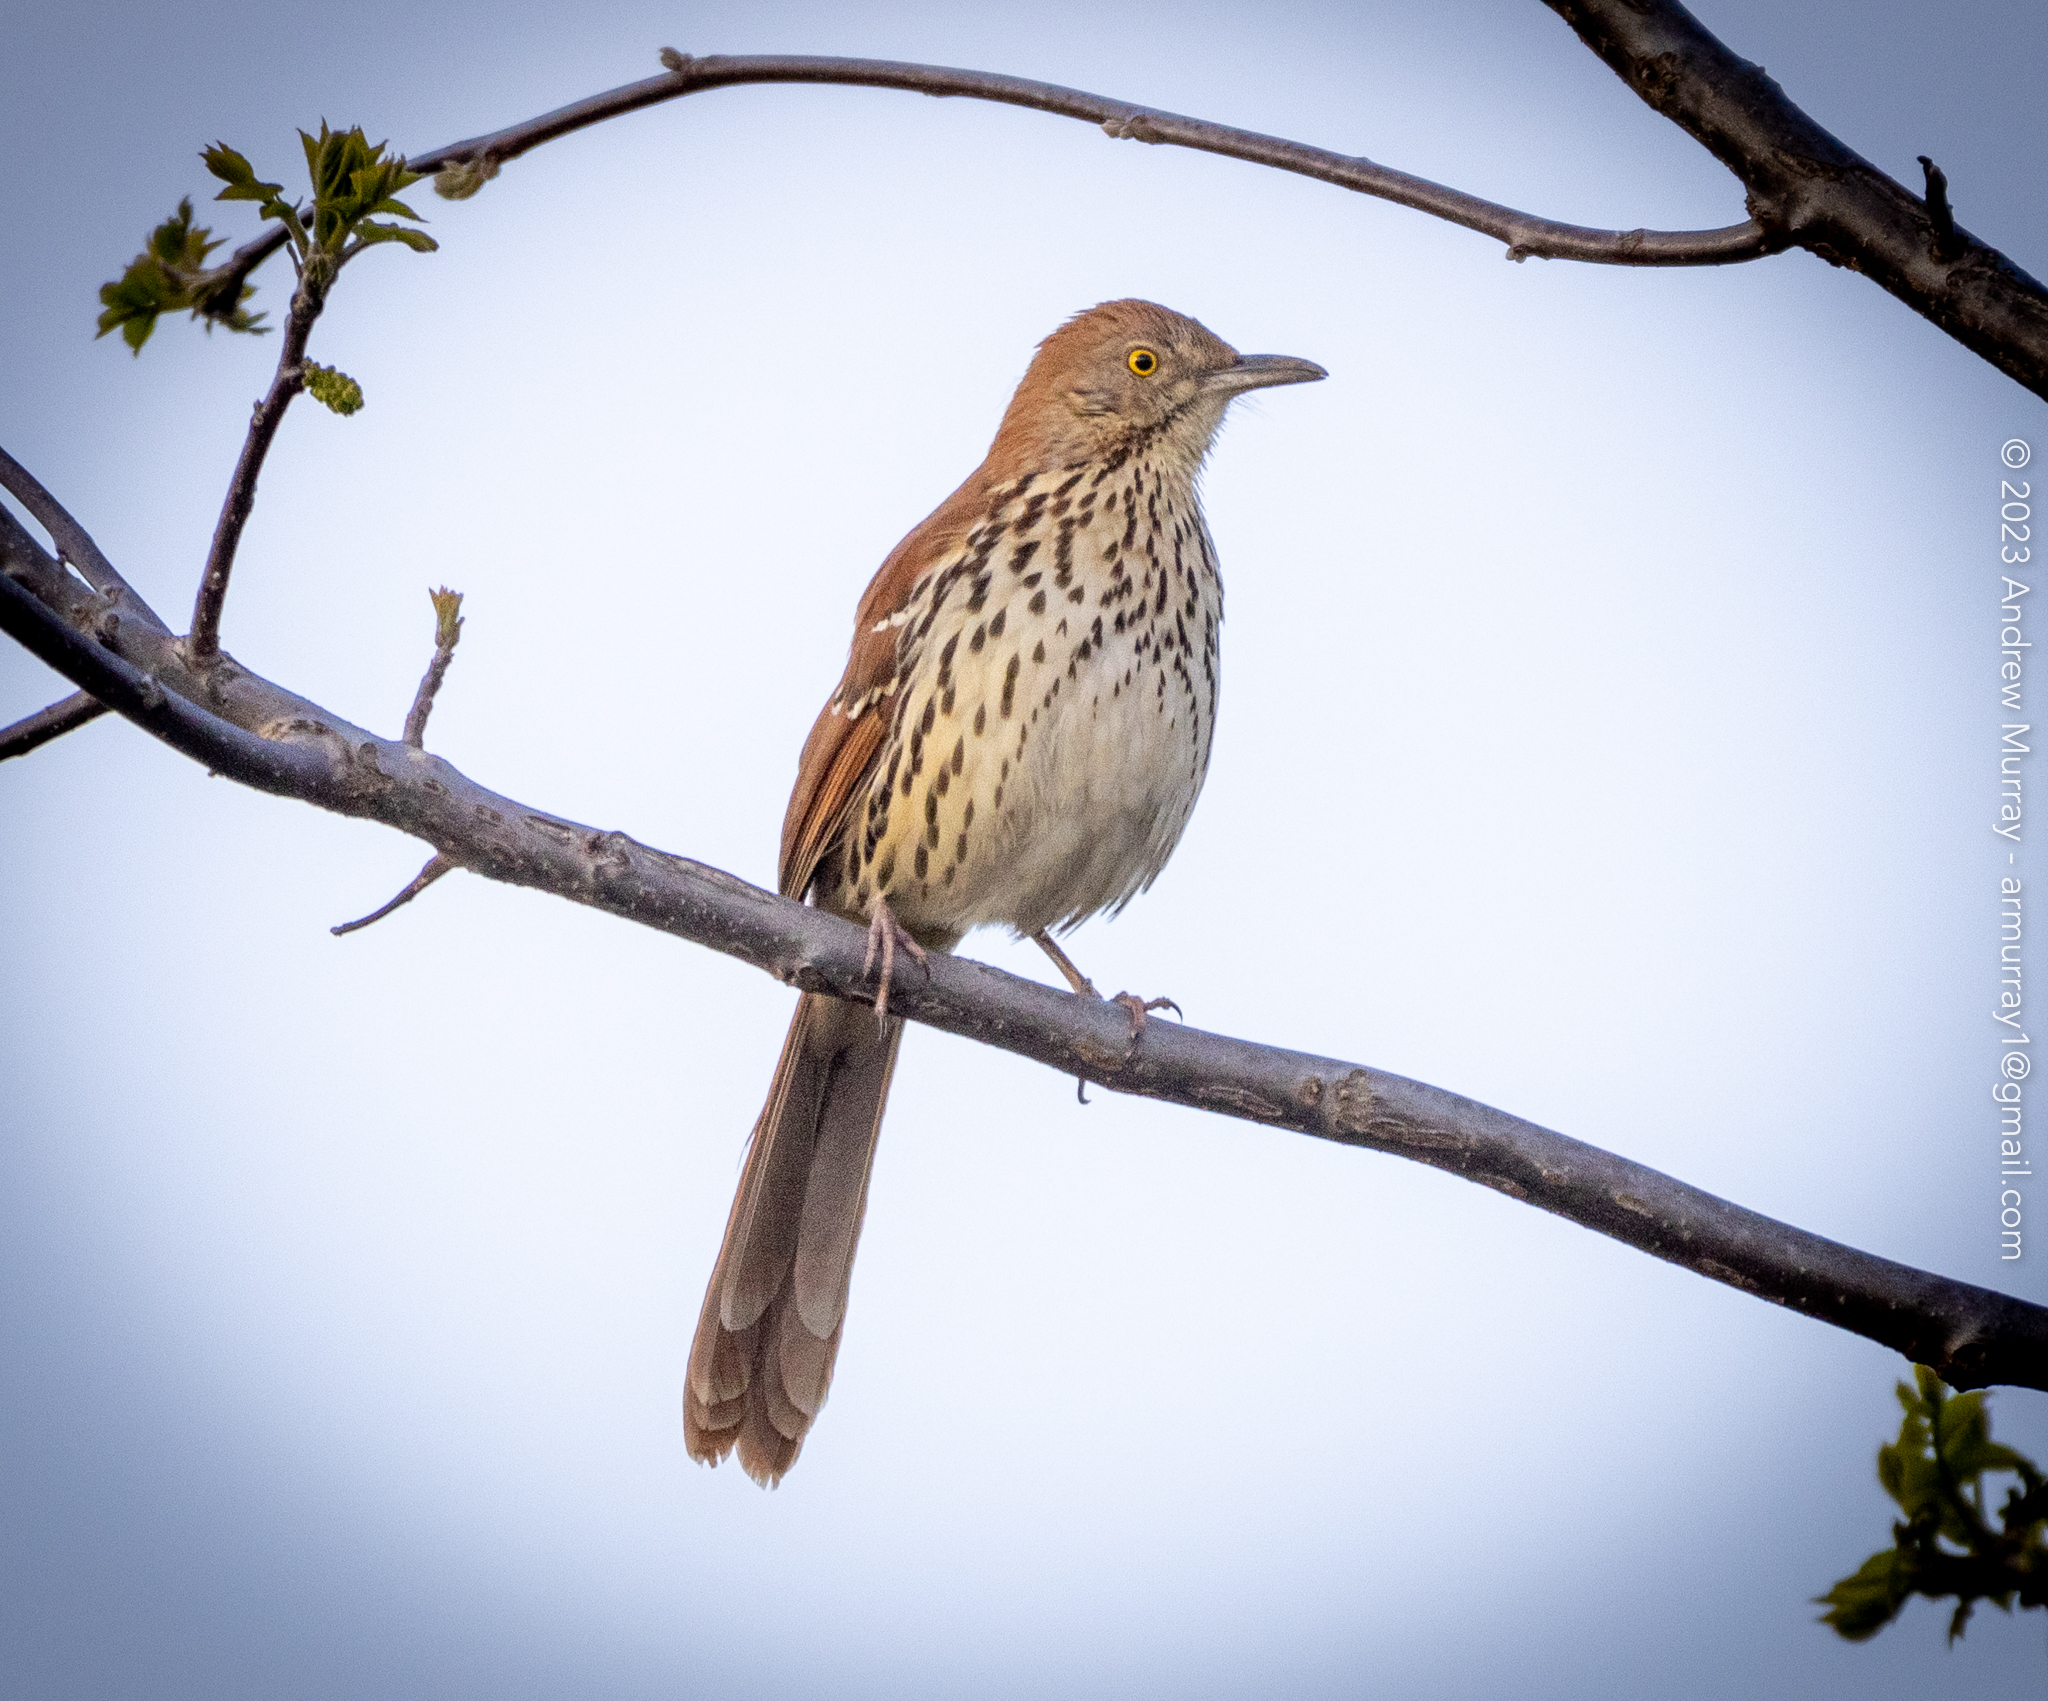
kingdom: Animalia
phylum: Chordata
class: Aves
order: Passeriformes
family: Mimidae
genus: Toxostoma
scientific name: Toxostoma rufum
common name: Brown thrasher
